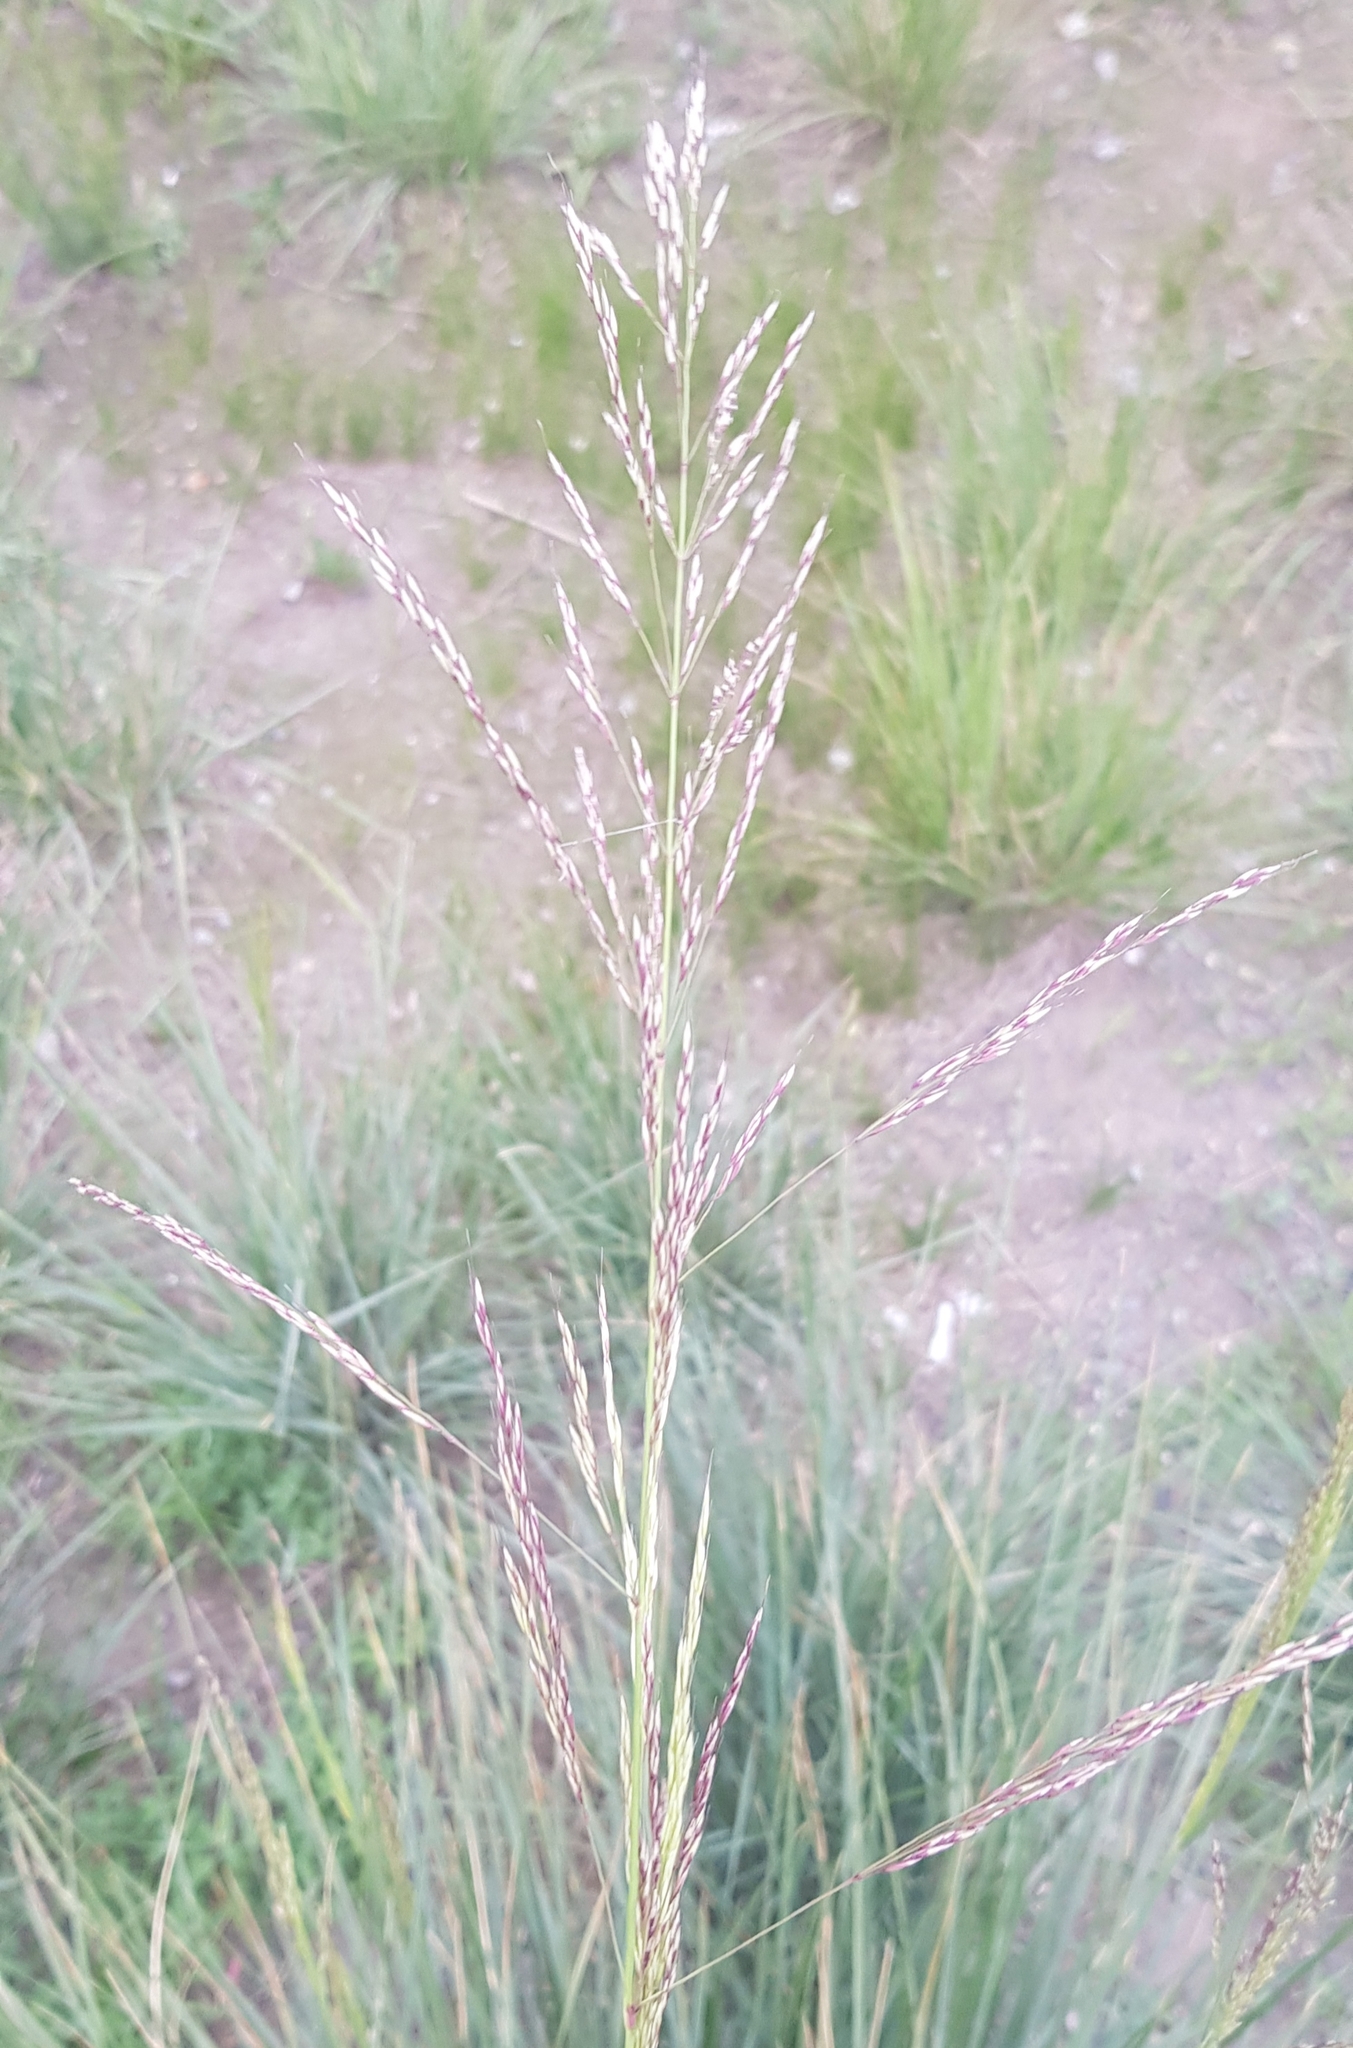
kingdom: Plantae
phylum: Tracheophyta
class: Liliopsida
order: Poales
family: Poaceae
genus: Neotrinia
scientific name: Neotrinia splendens
